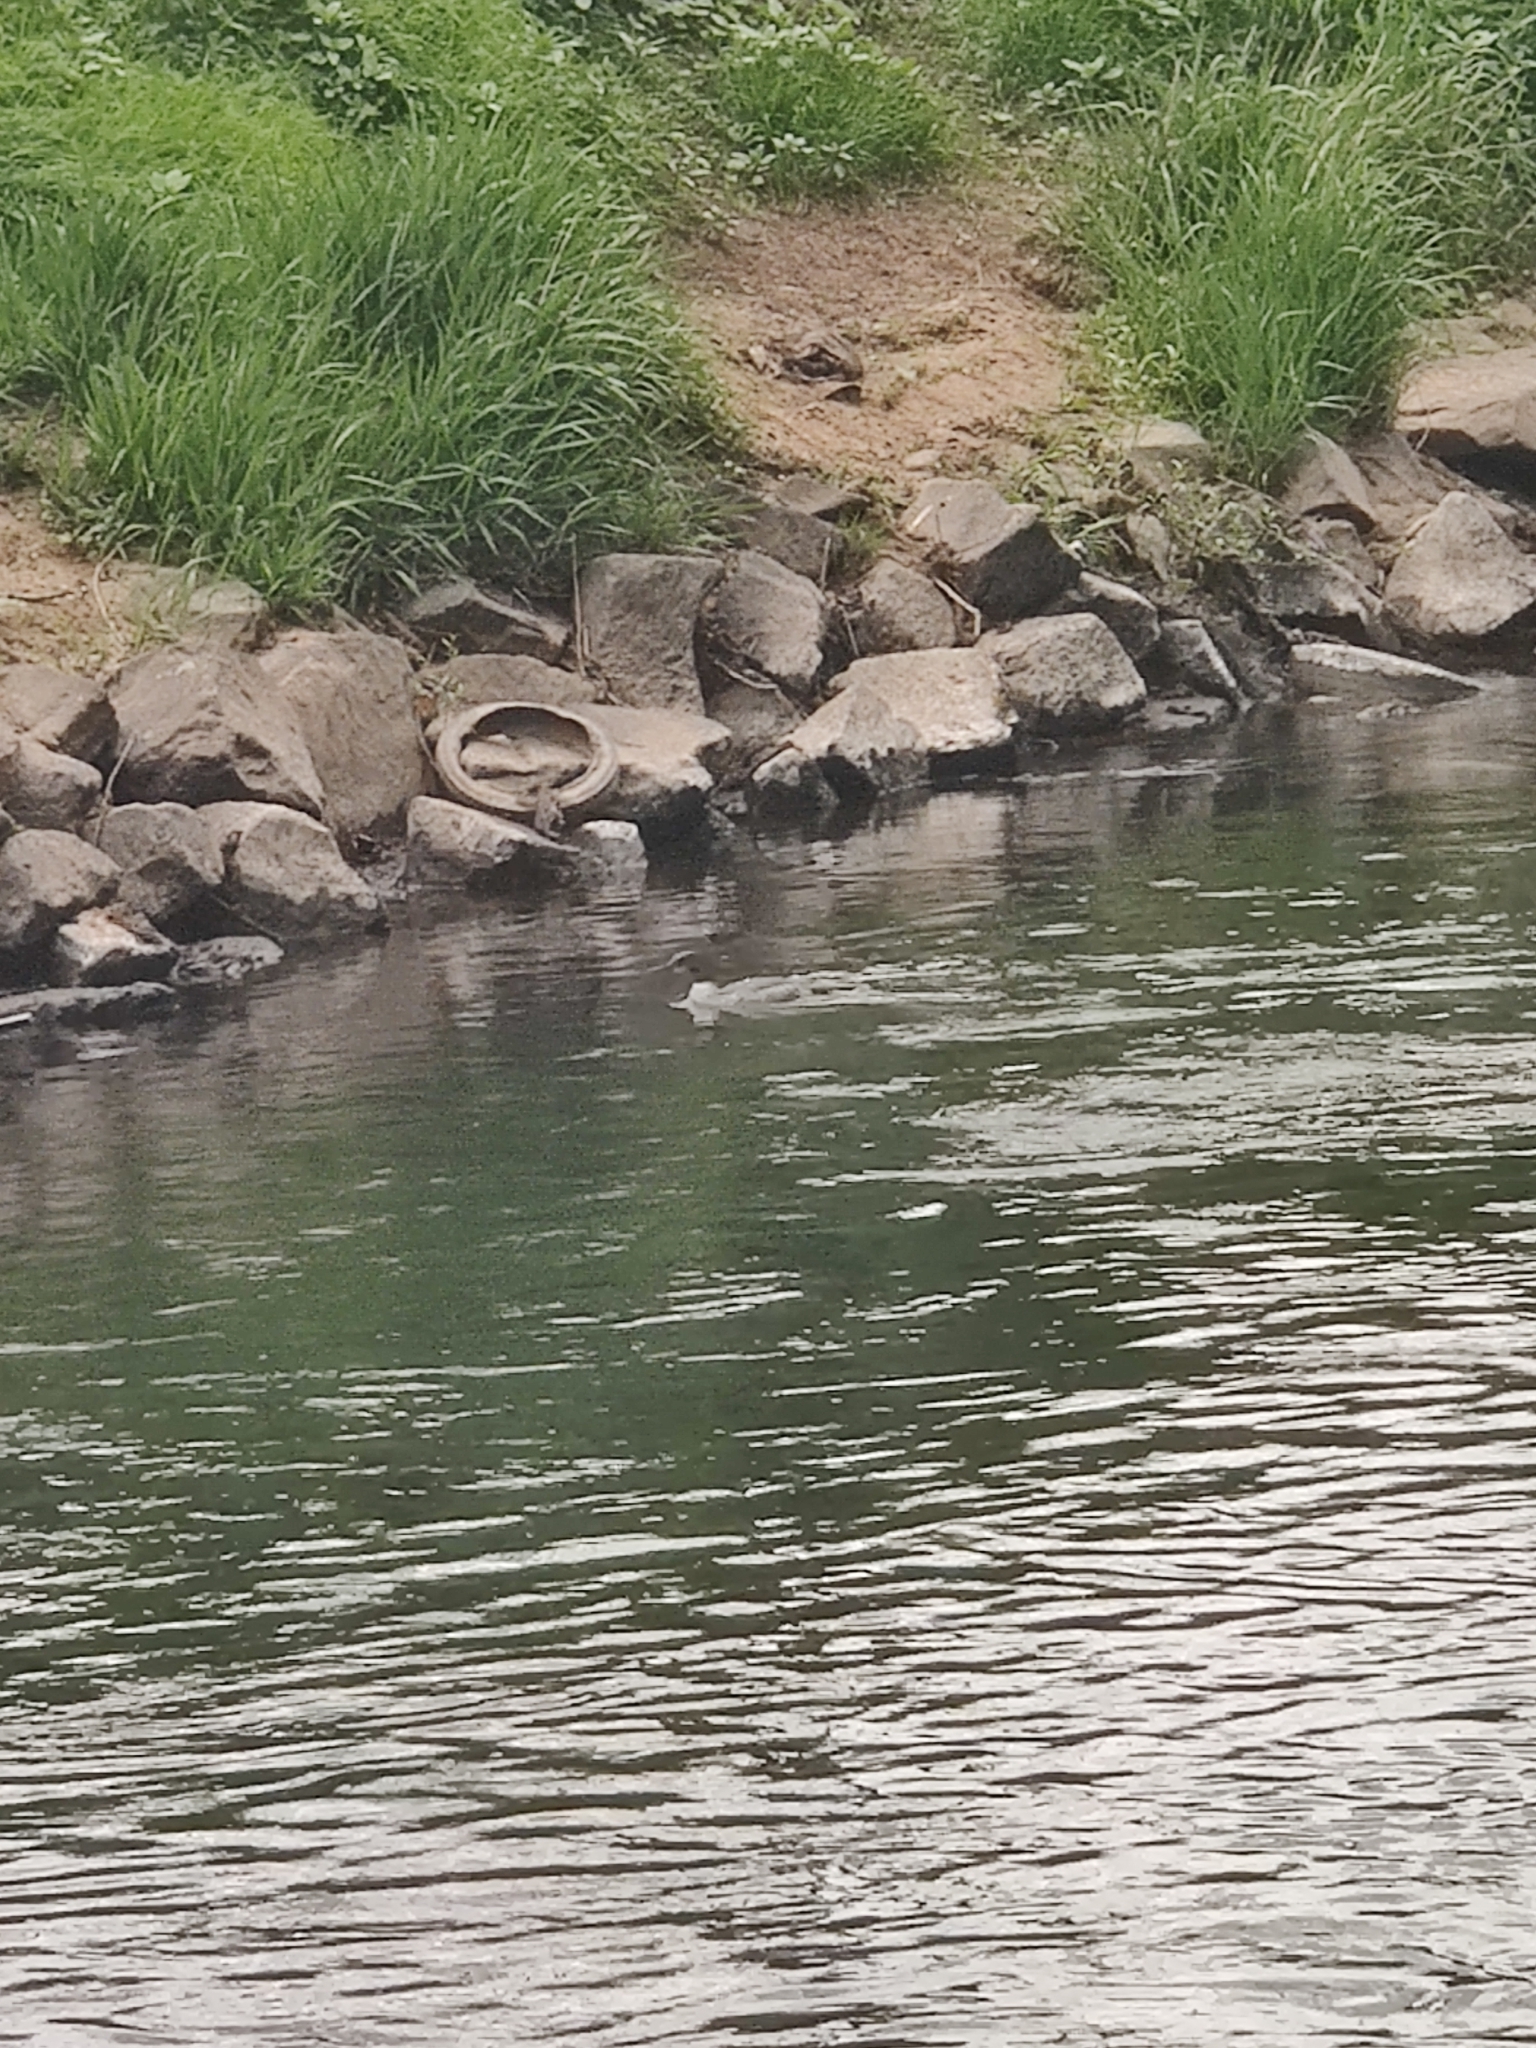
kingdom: Animalia
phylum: Chordata
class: Aves
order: Anseriformes
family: Anatidae
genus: Mergus
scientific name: Mergus merganser
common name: Common merganser
